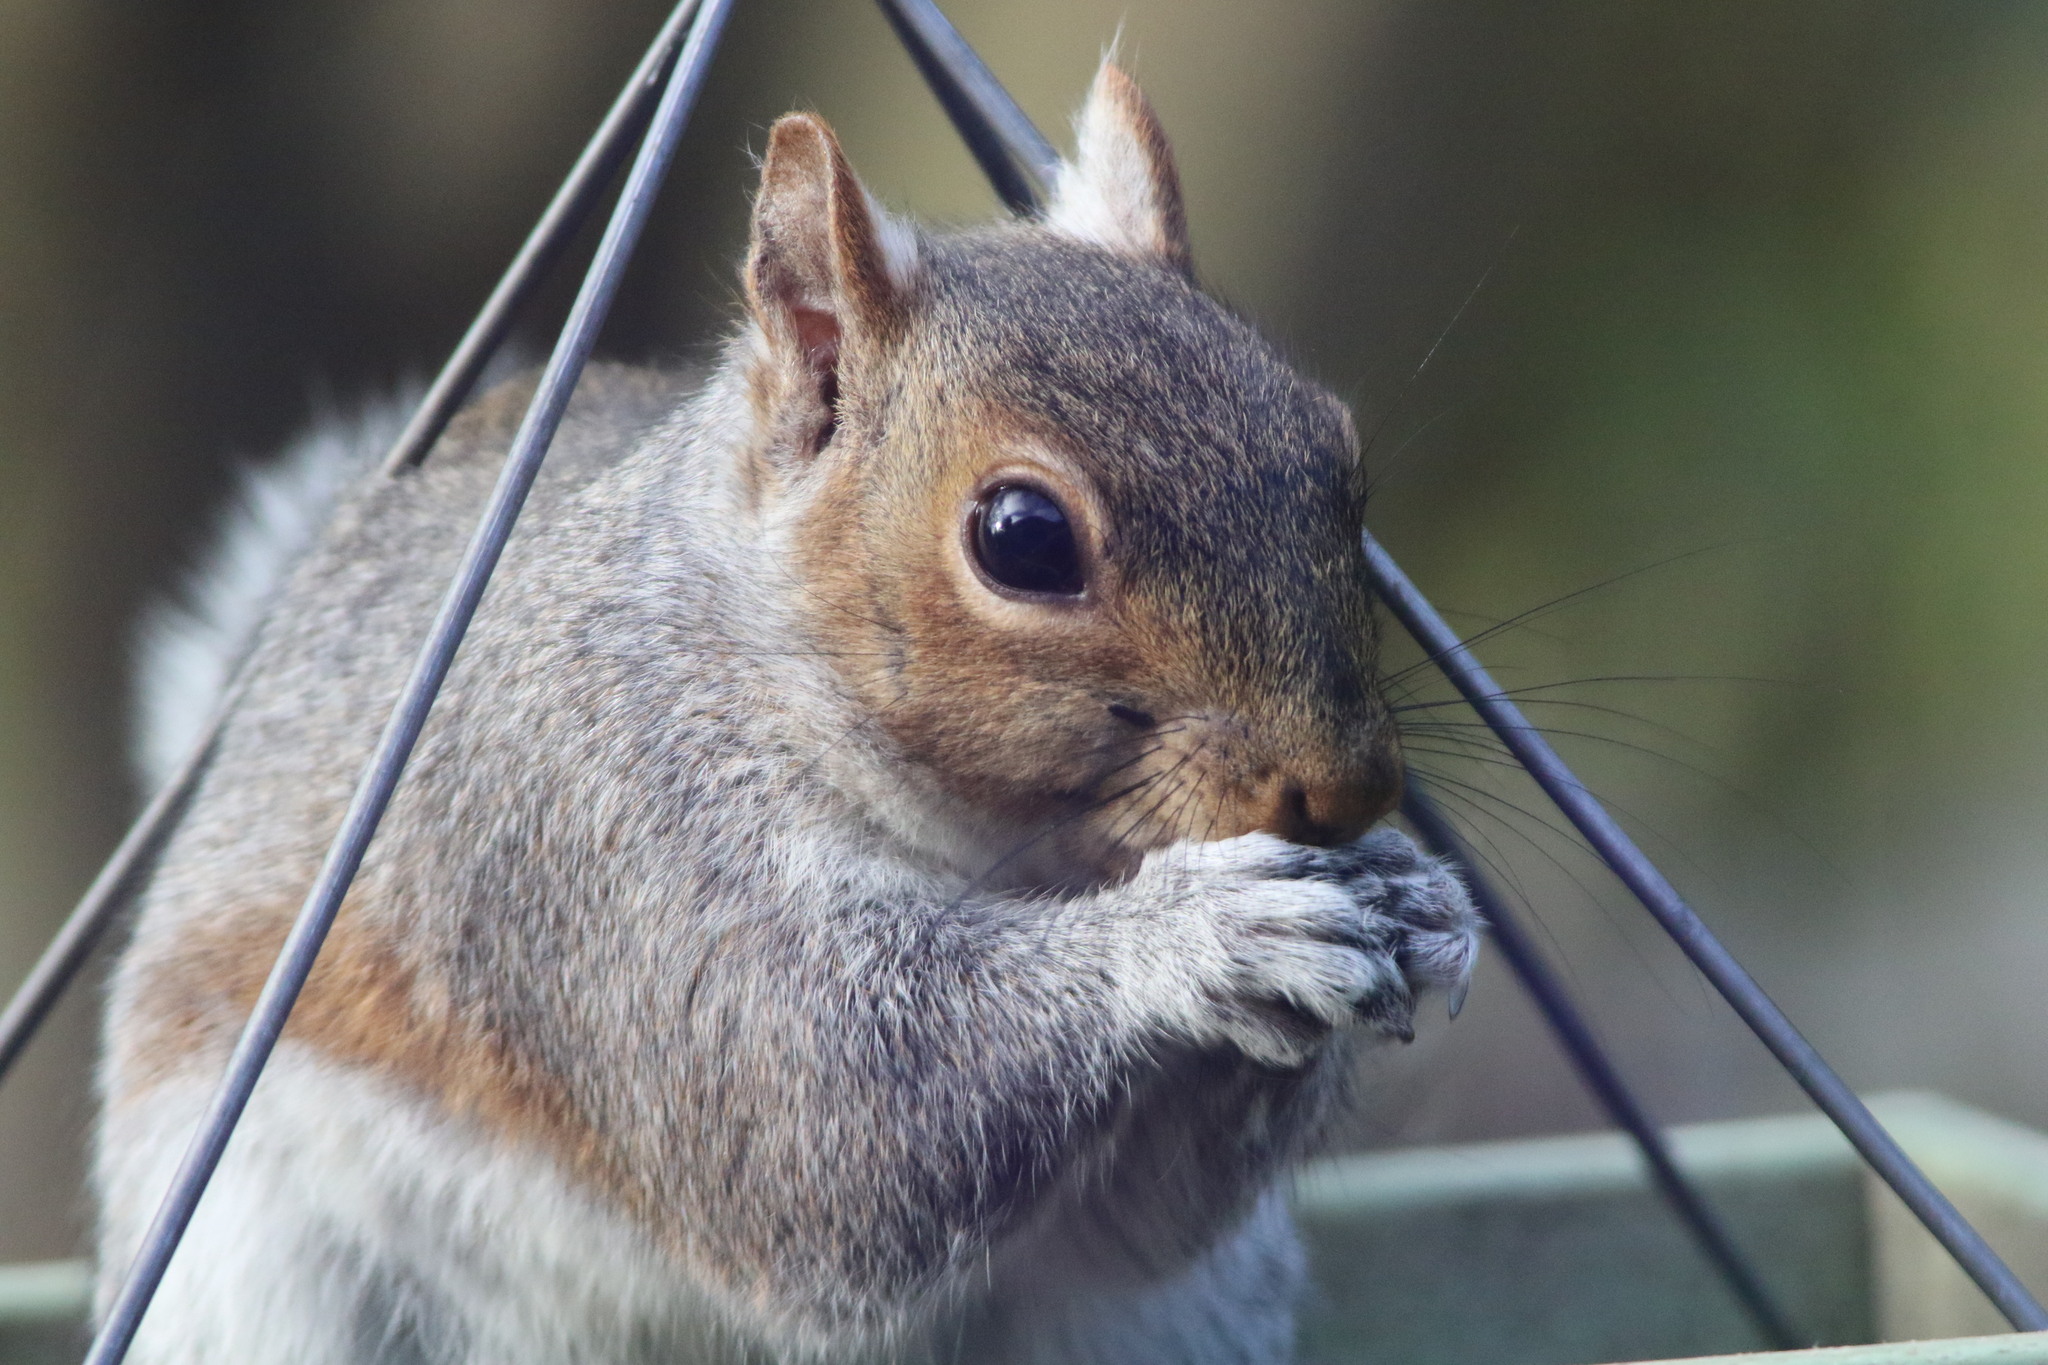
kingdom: Animalia
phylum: Chordata
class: Mammalia
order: Rodentia
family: Sciuridae
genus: Sciurus
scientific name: Sciurus carolinensis
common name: Eastern gray squirrel
